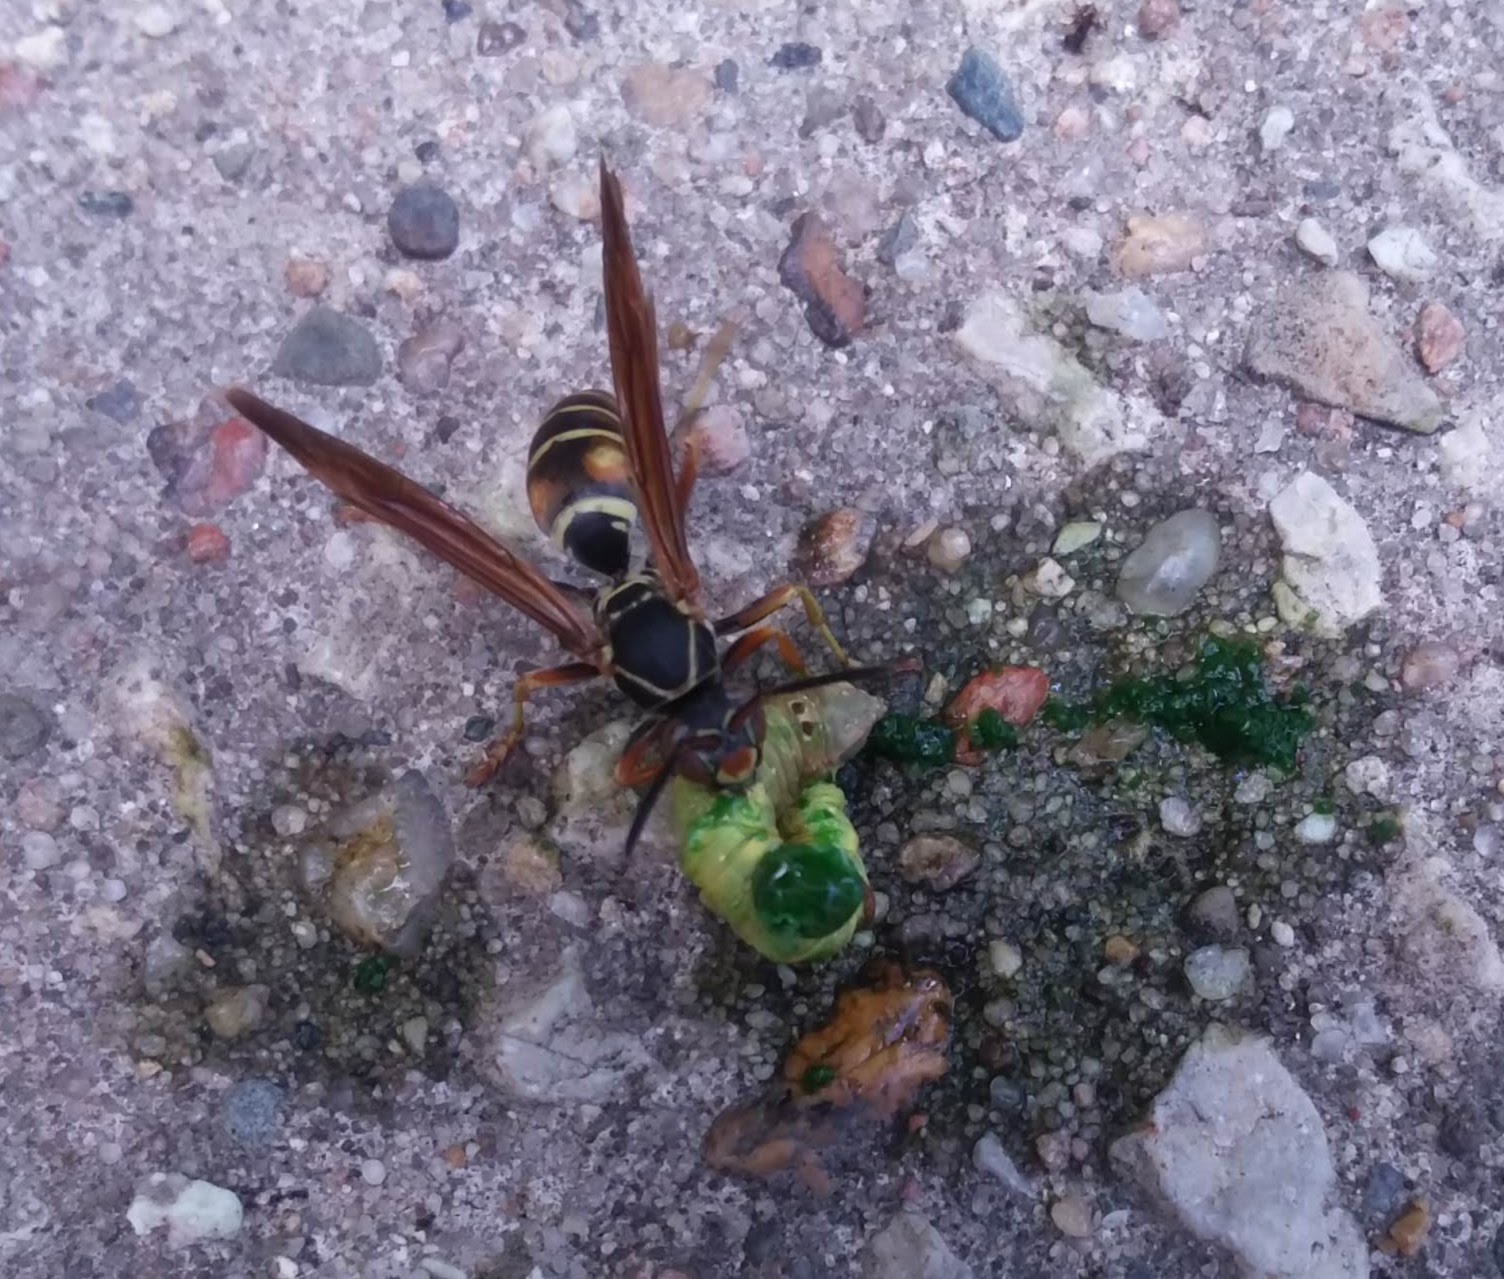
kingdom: Animalia
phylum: Arthropoda
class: Insecta
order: Hymenoptera
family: Eumenidae
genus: Polistes
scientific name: Polistes fuscatus
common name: Dark paper wasp
